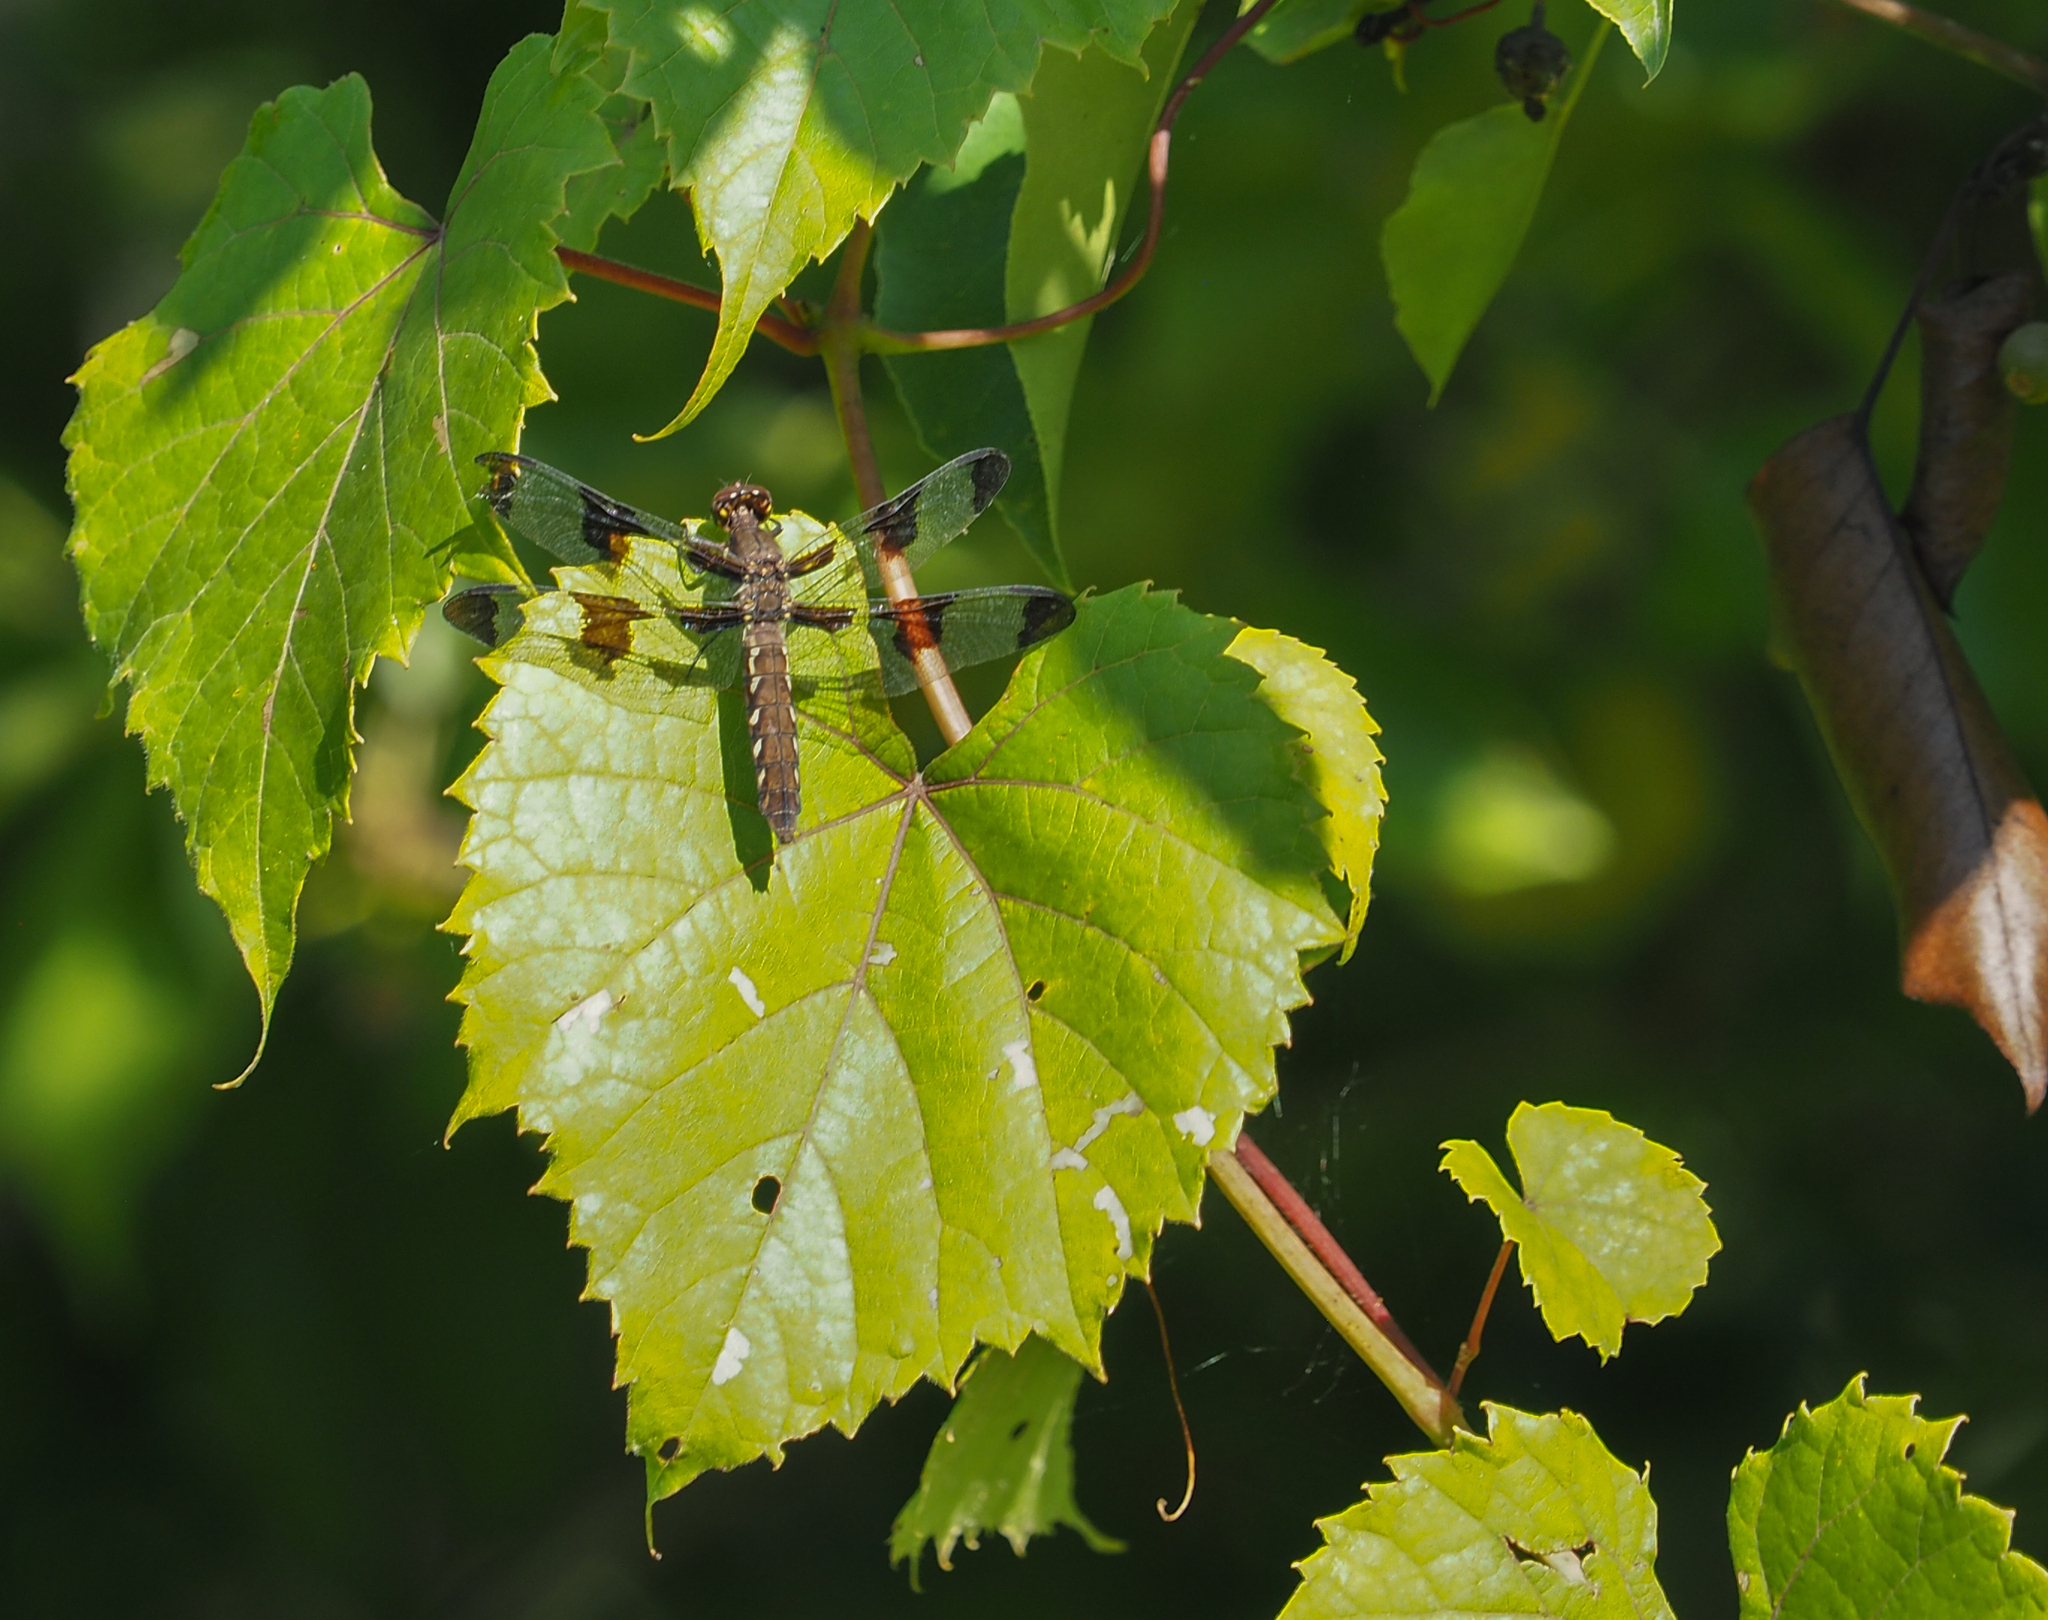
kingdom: Animalia
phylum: Arthropoda
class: Insecta
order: Odonata
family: Libellulidae
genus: Plathemis
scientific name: Plathemis lydia
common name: Common whitetail
